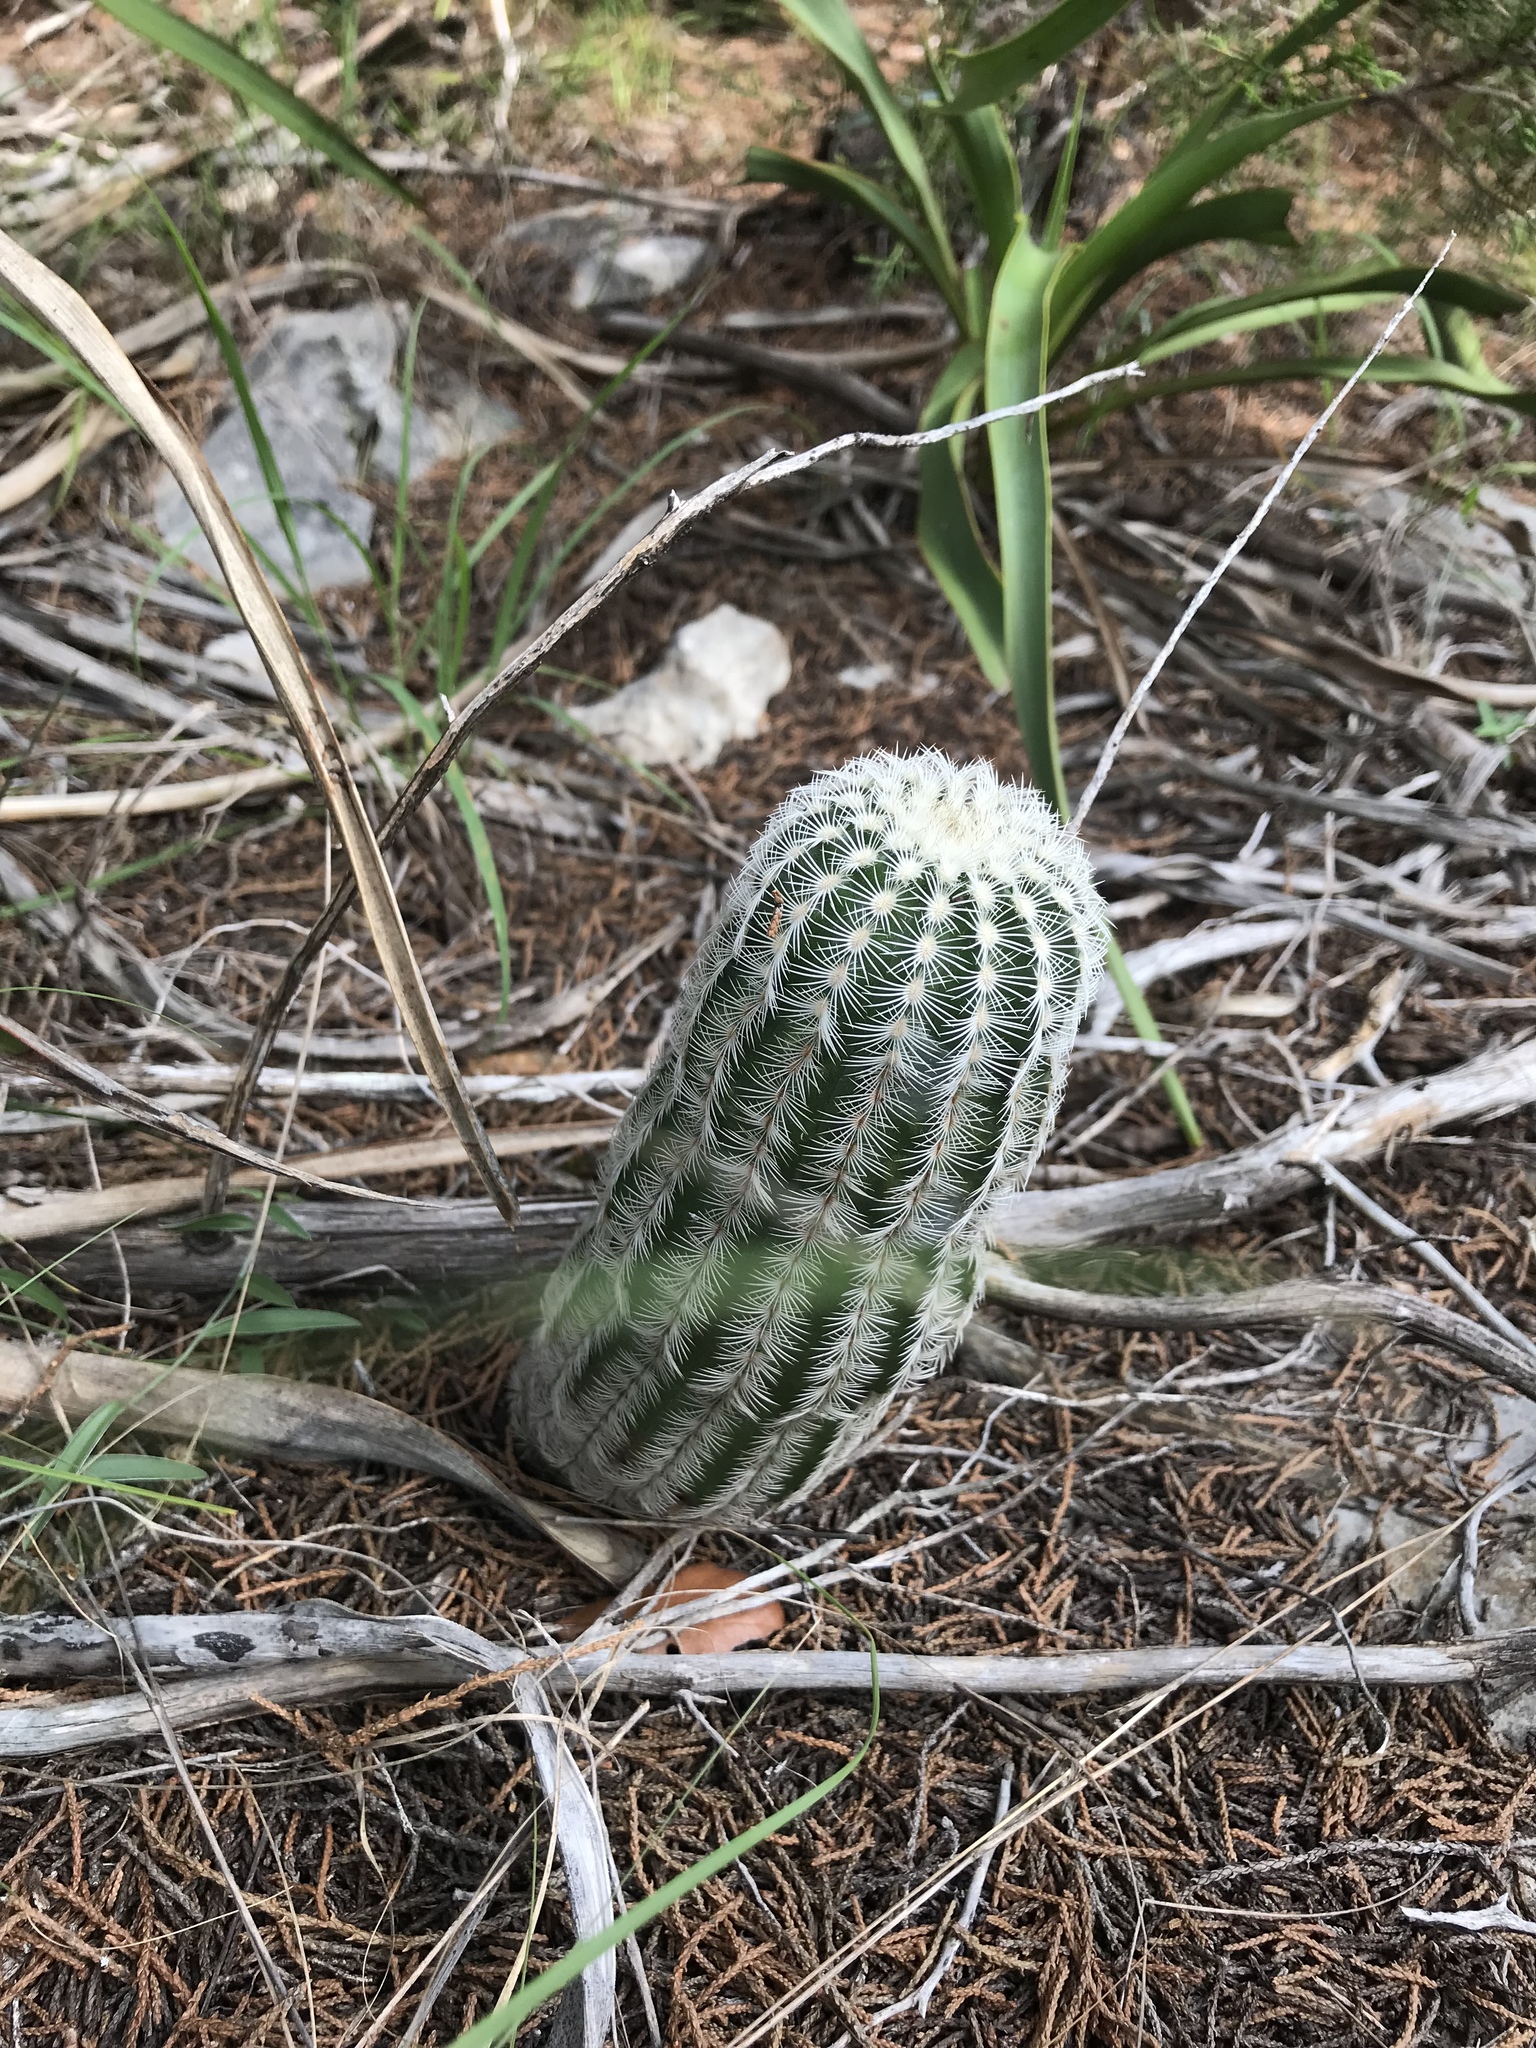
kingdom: Plantae
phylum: Tracheophyta
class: Magnoliopsida
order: Caryophyllales
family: Cactaceae
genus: Echinocereus
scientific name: Echinocereus reichenbachii
